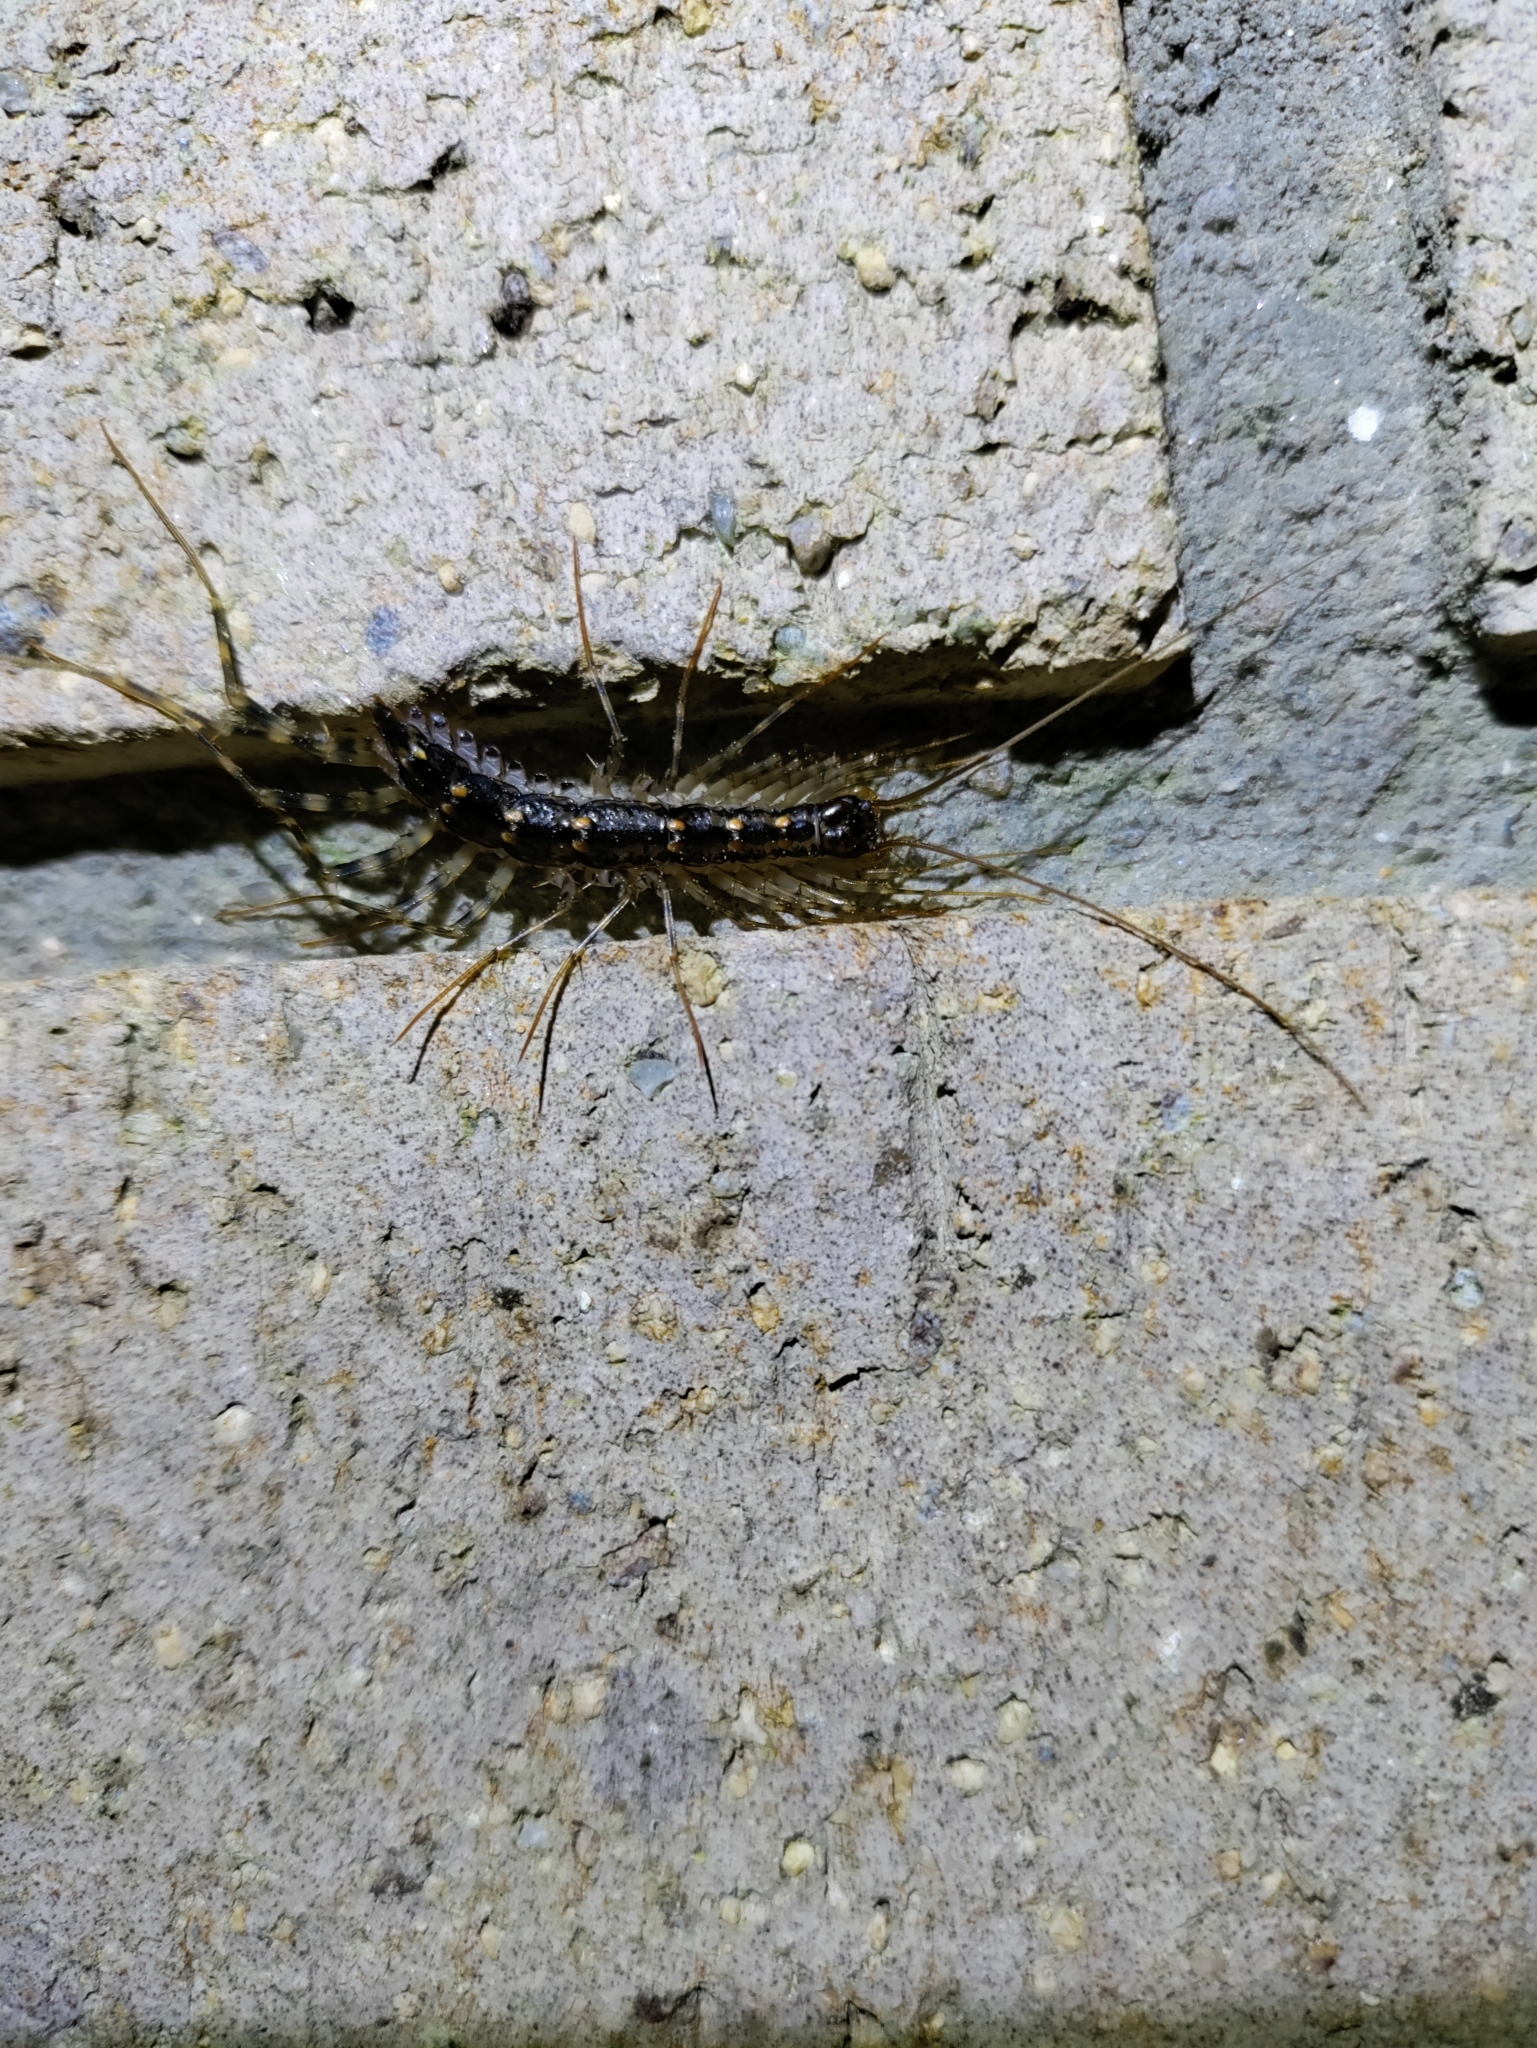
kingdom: Animalia
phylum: Arthropoda
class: Chilopoda
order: Scutigeromorpha
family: Scutigeridae
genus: Thereuonema
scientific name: Thereuonema tuberculata
